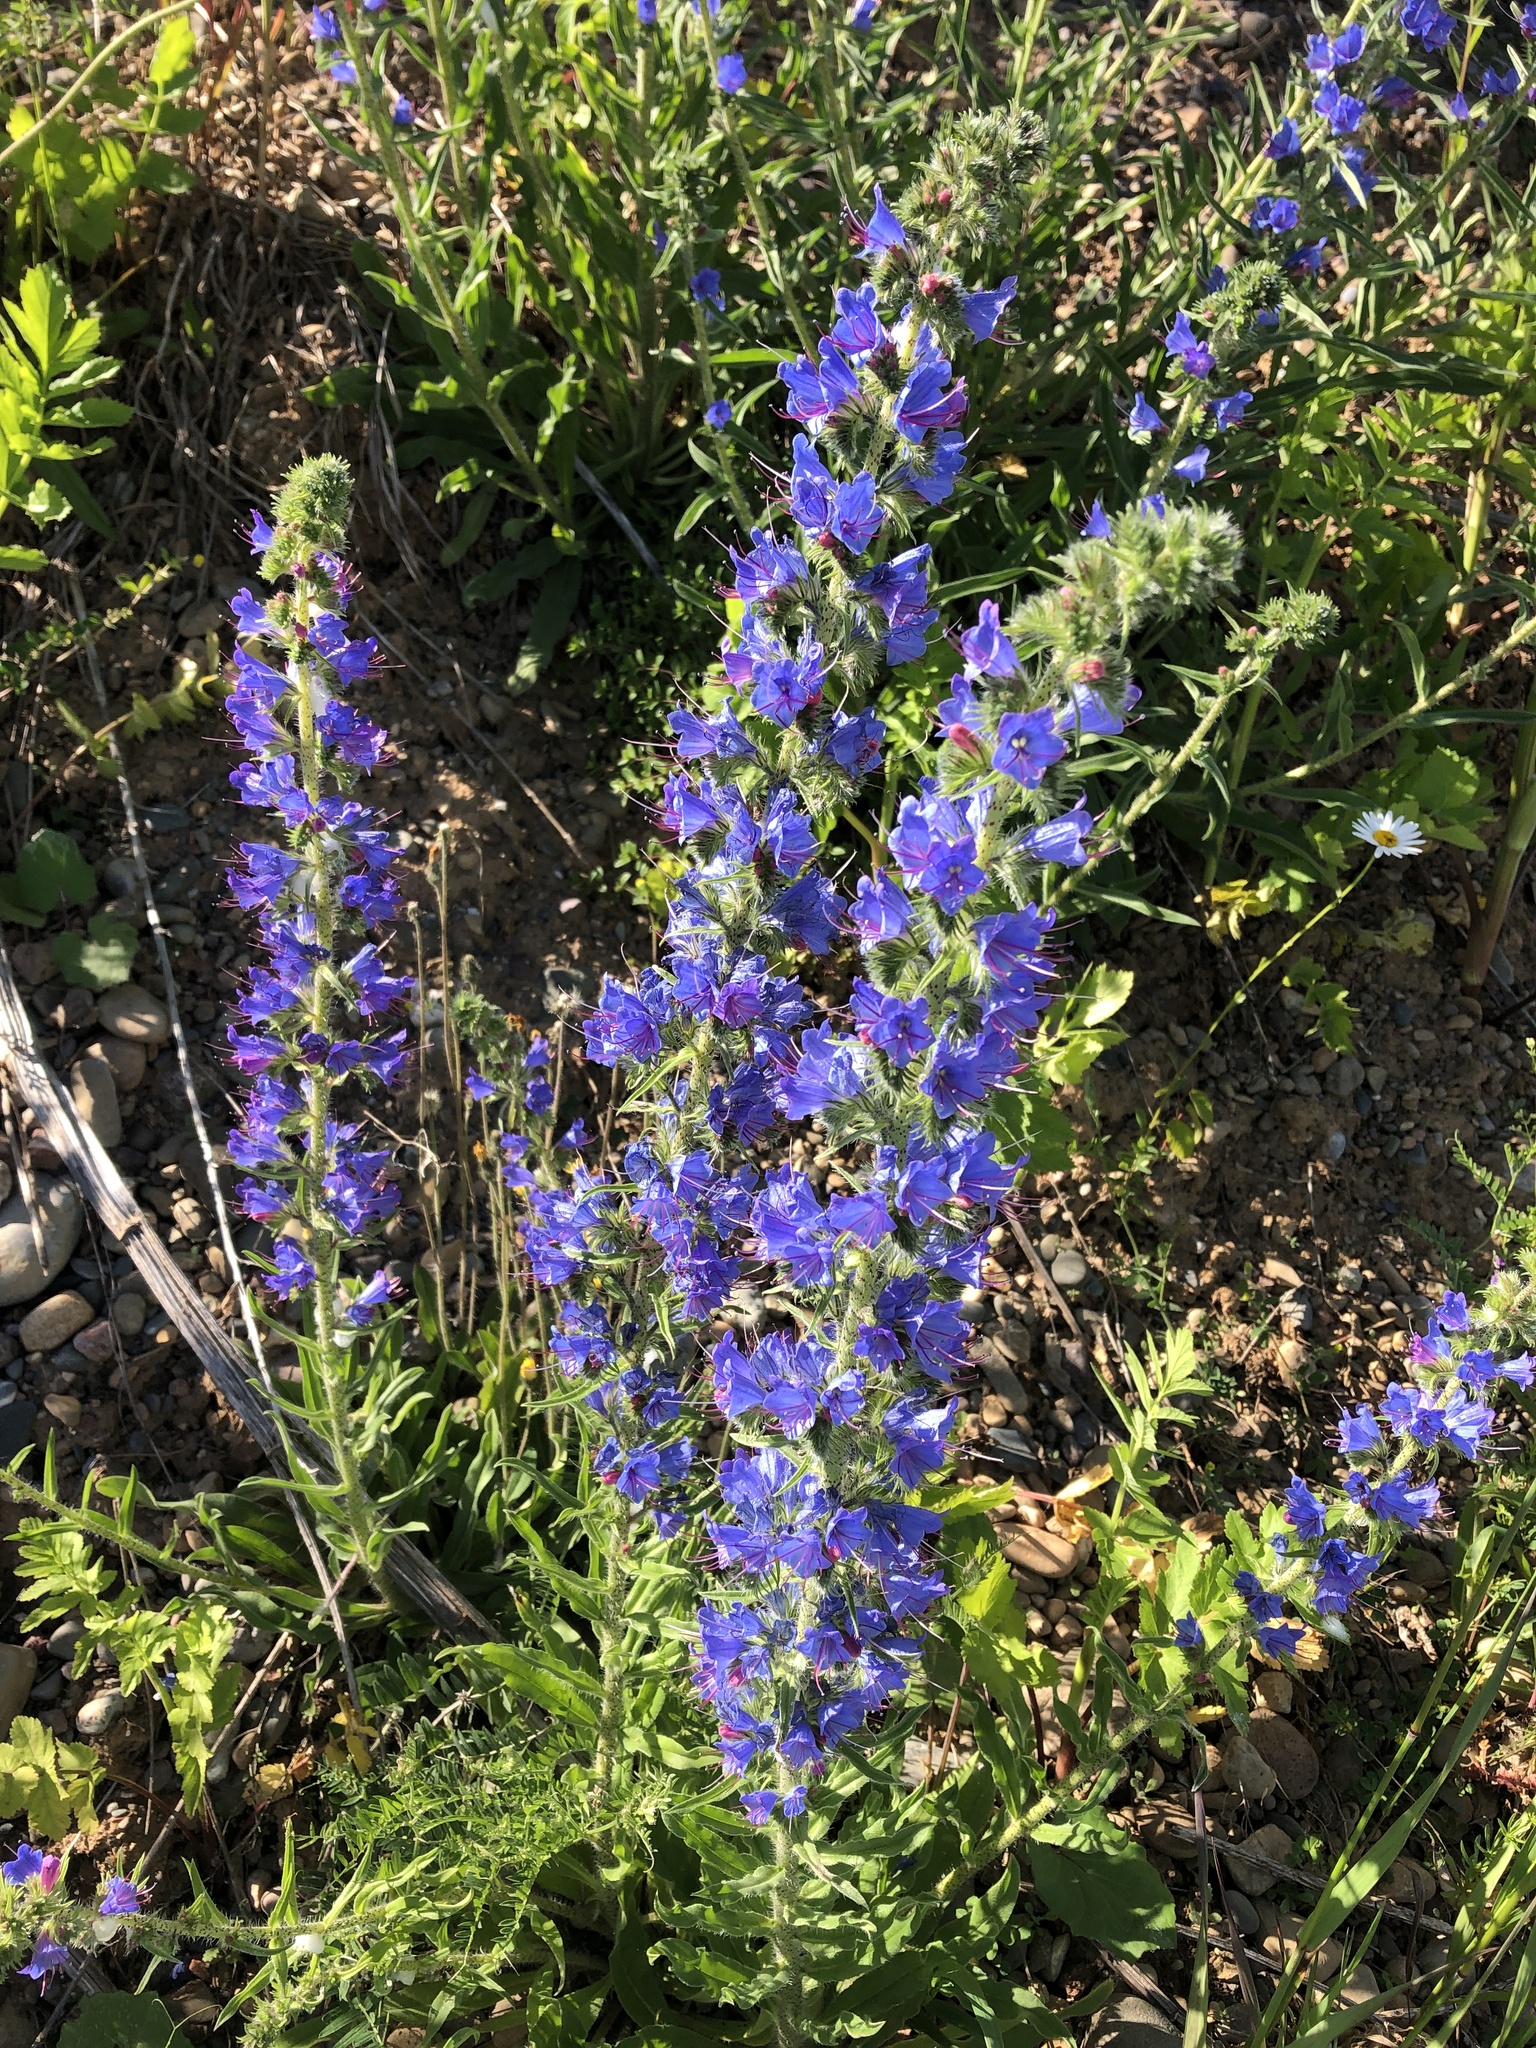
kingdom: Plantae
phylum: Tracheophyta
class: Magnoliopsida
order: Boraginales
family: Boraginaceae
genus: Echium
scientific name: Echium vulgare
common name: Common viper's bugloss
